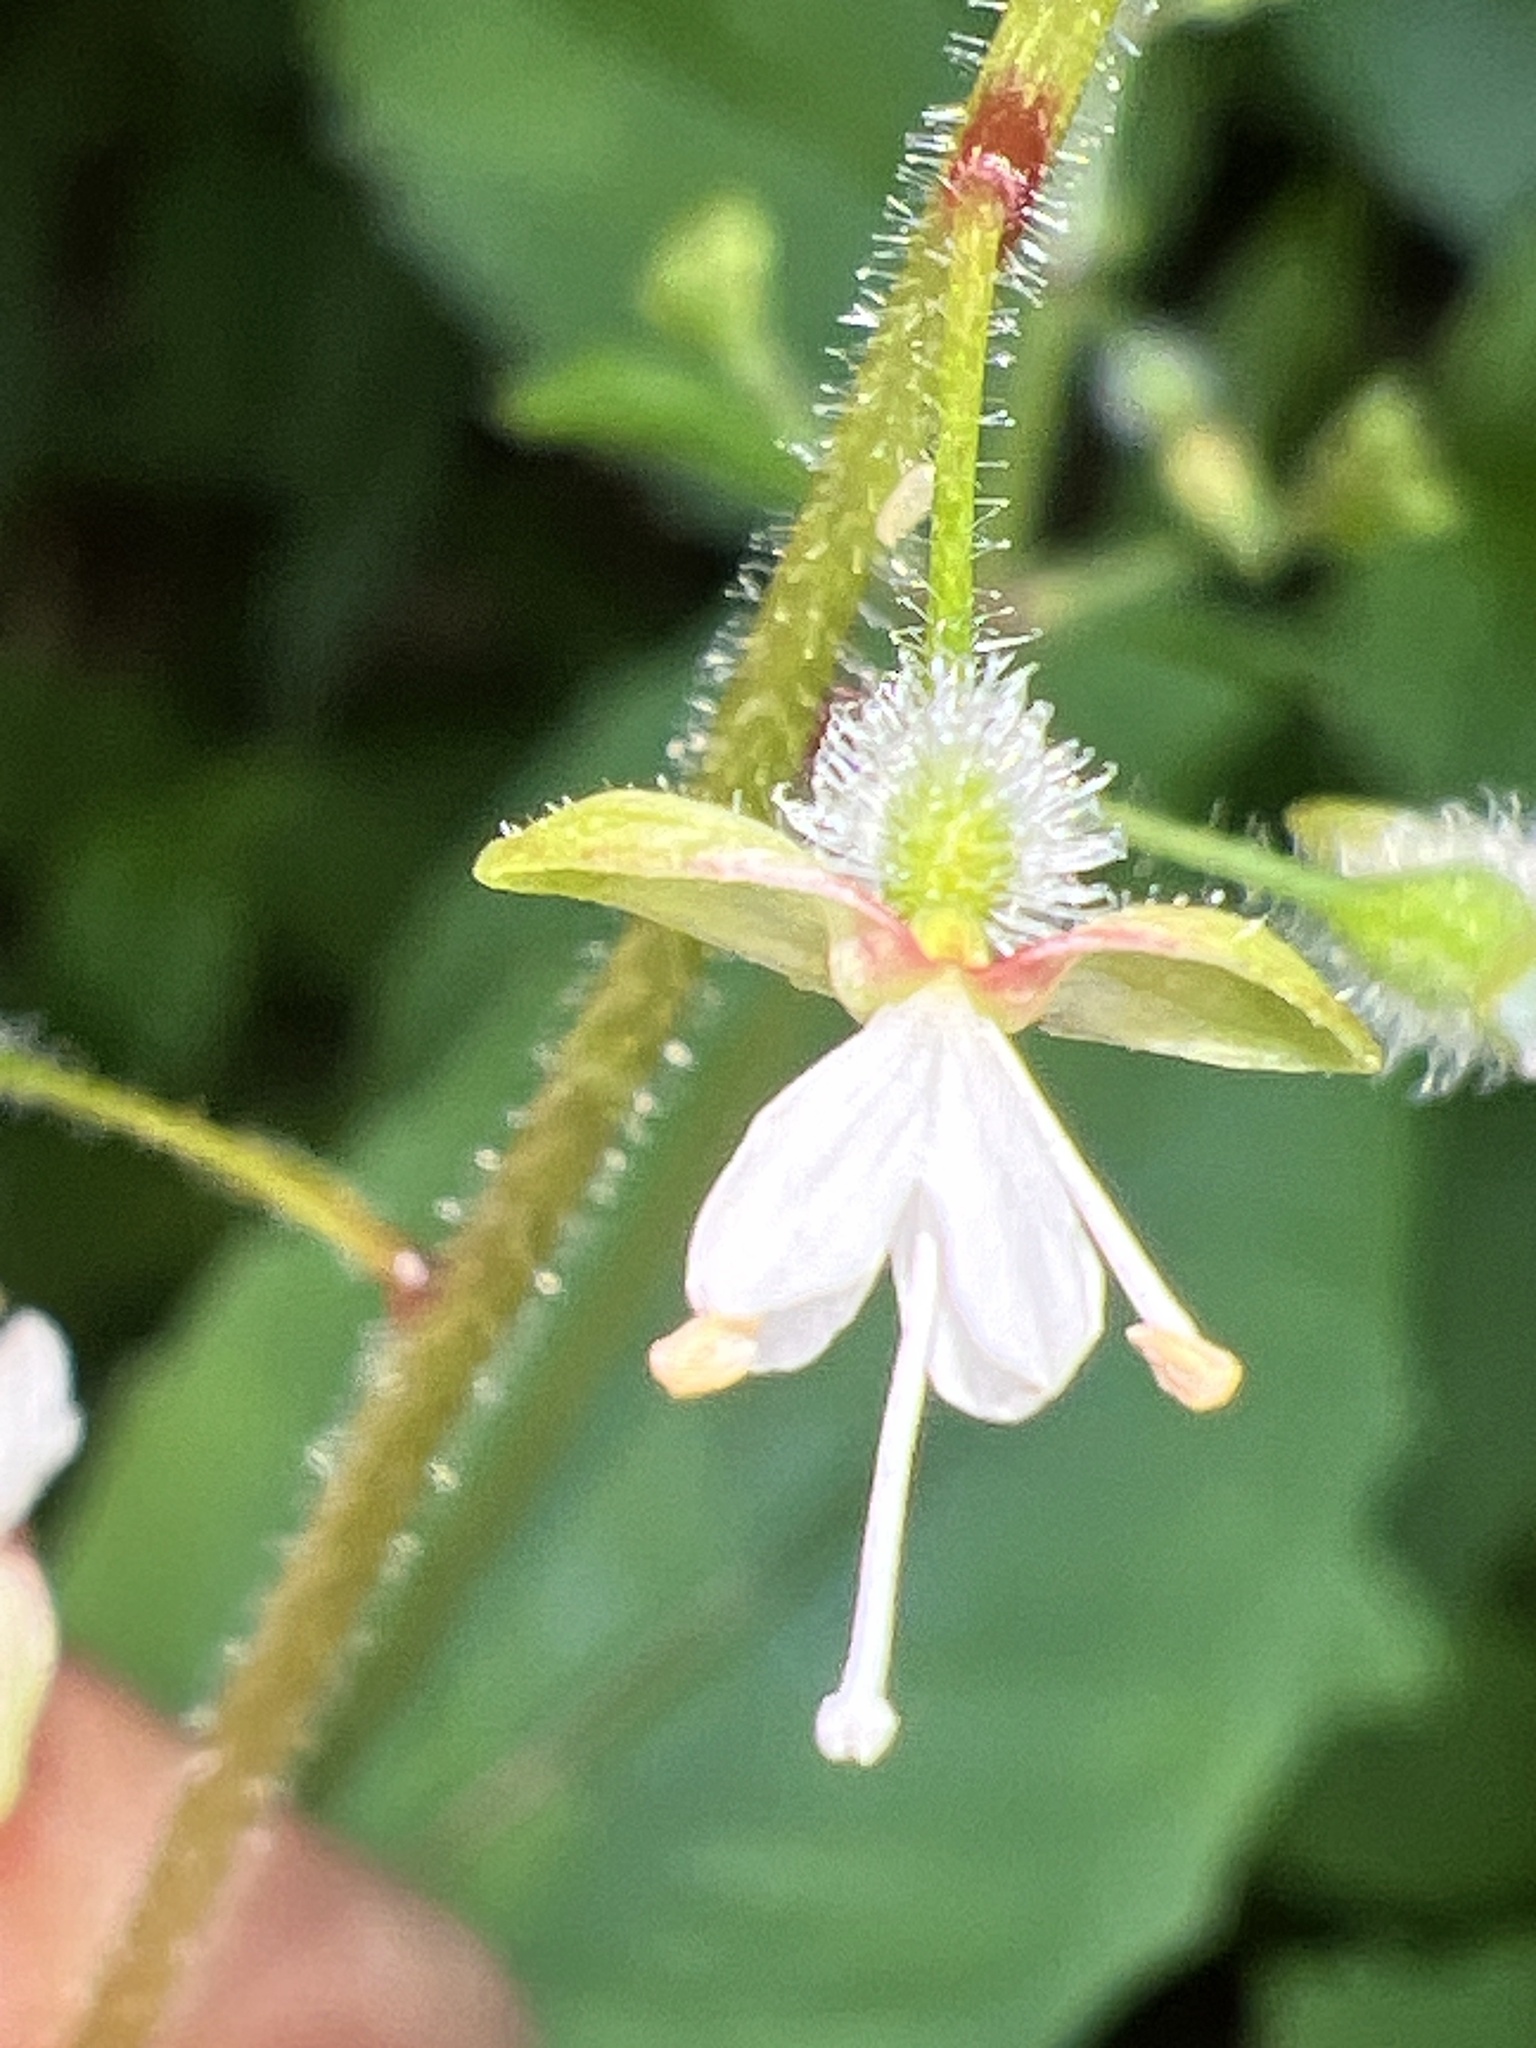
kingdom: Plantae
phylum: Tracheophyta
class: Magnoliopsida
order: Myrtales
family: Onagraceae
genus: Circaea
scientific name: Circaea canadensis
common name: Broad-leaved enchanter's nightshade
